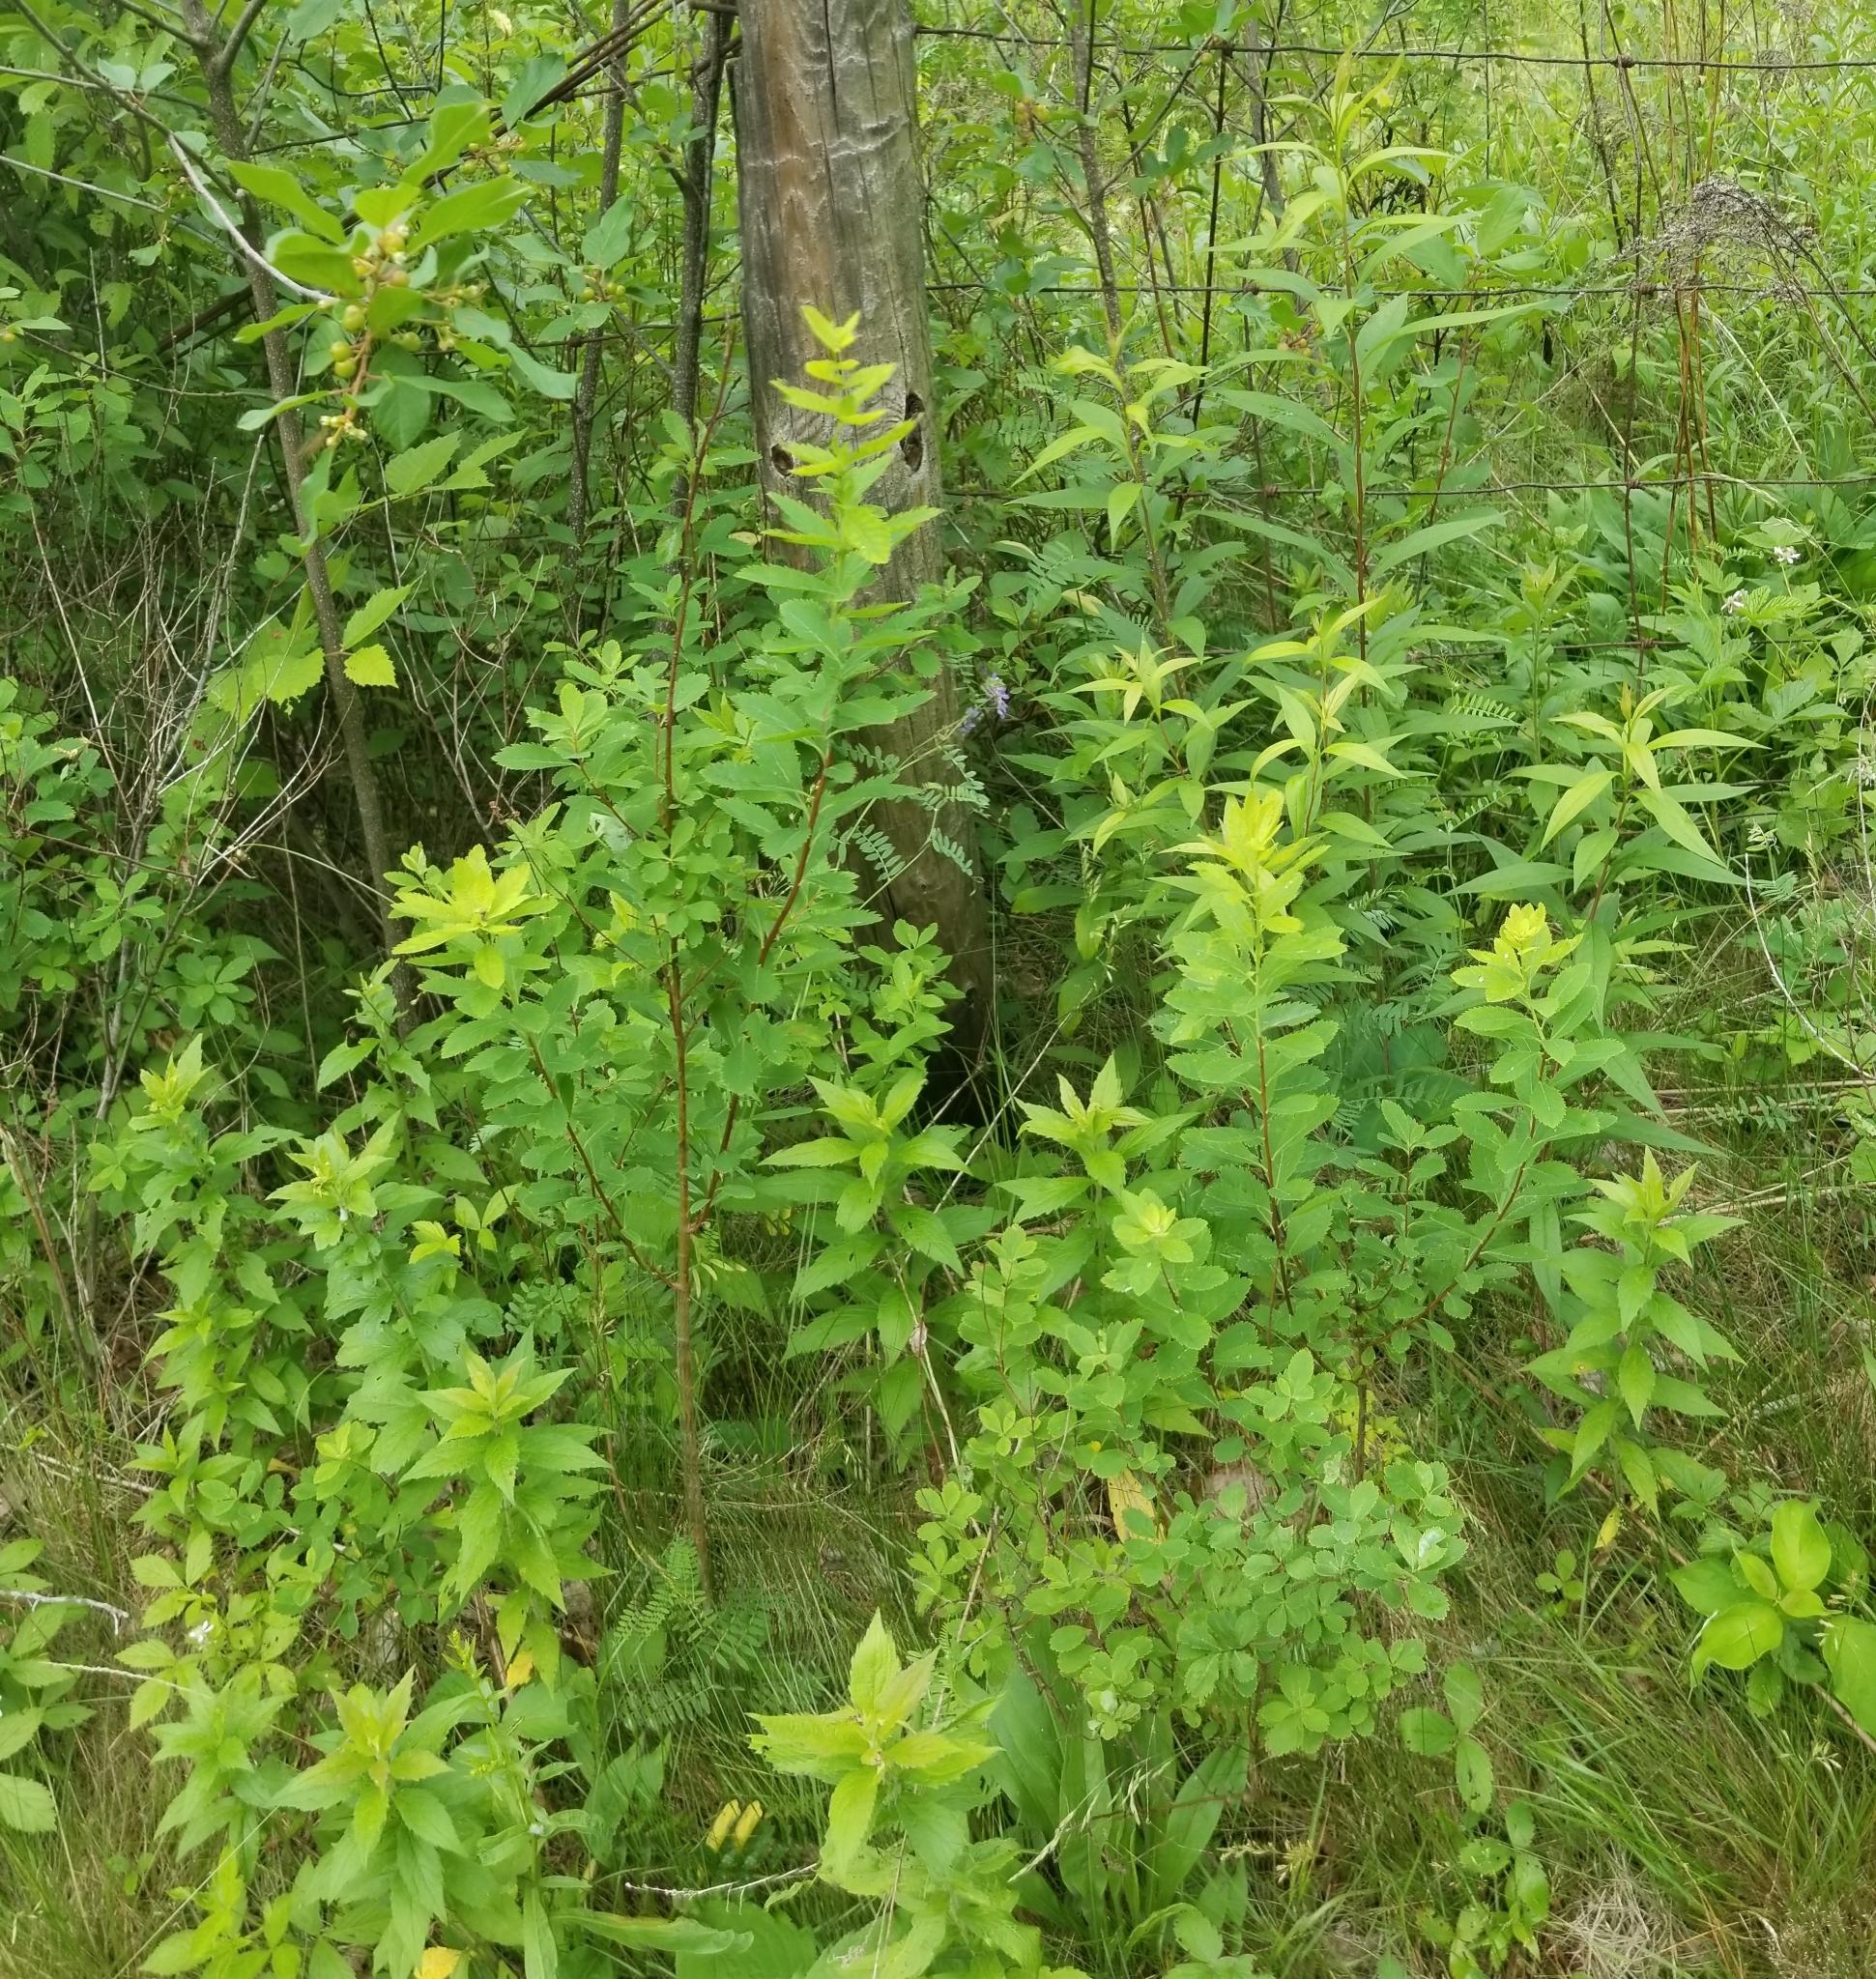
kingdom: Plantae
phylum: Tracheophyta
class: Magnoliopsida
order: Rosales
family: Rosaceae
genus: Spiraea
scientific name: Spiraea alba
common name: Pale bridewort
